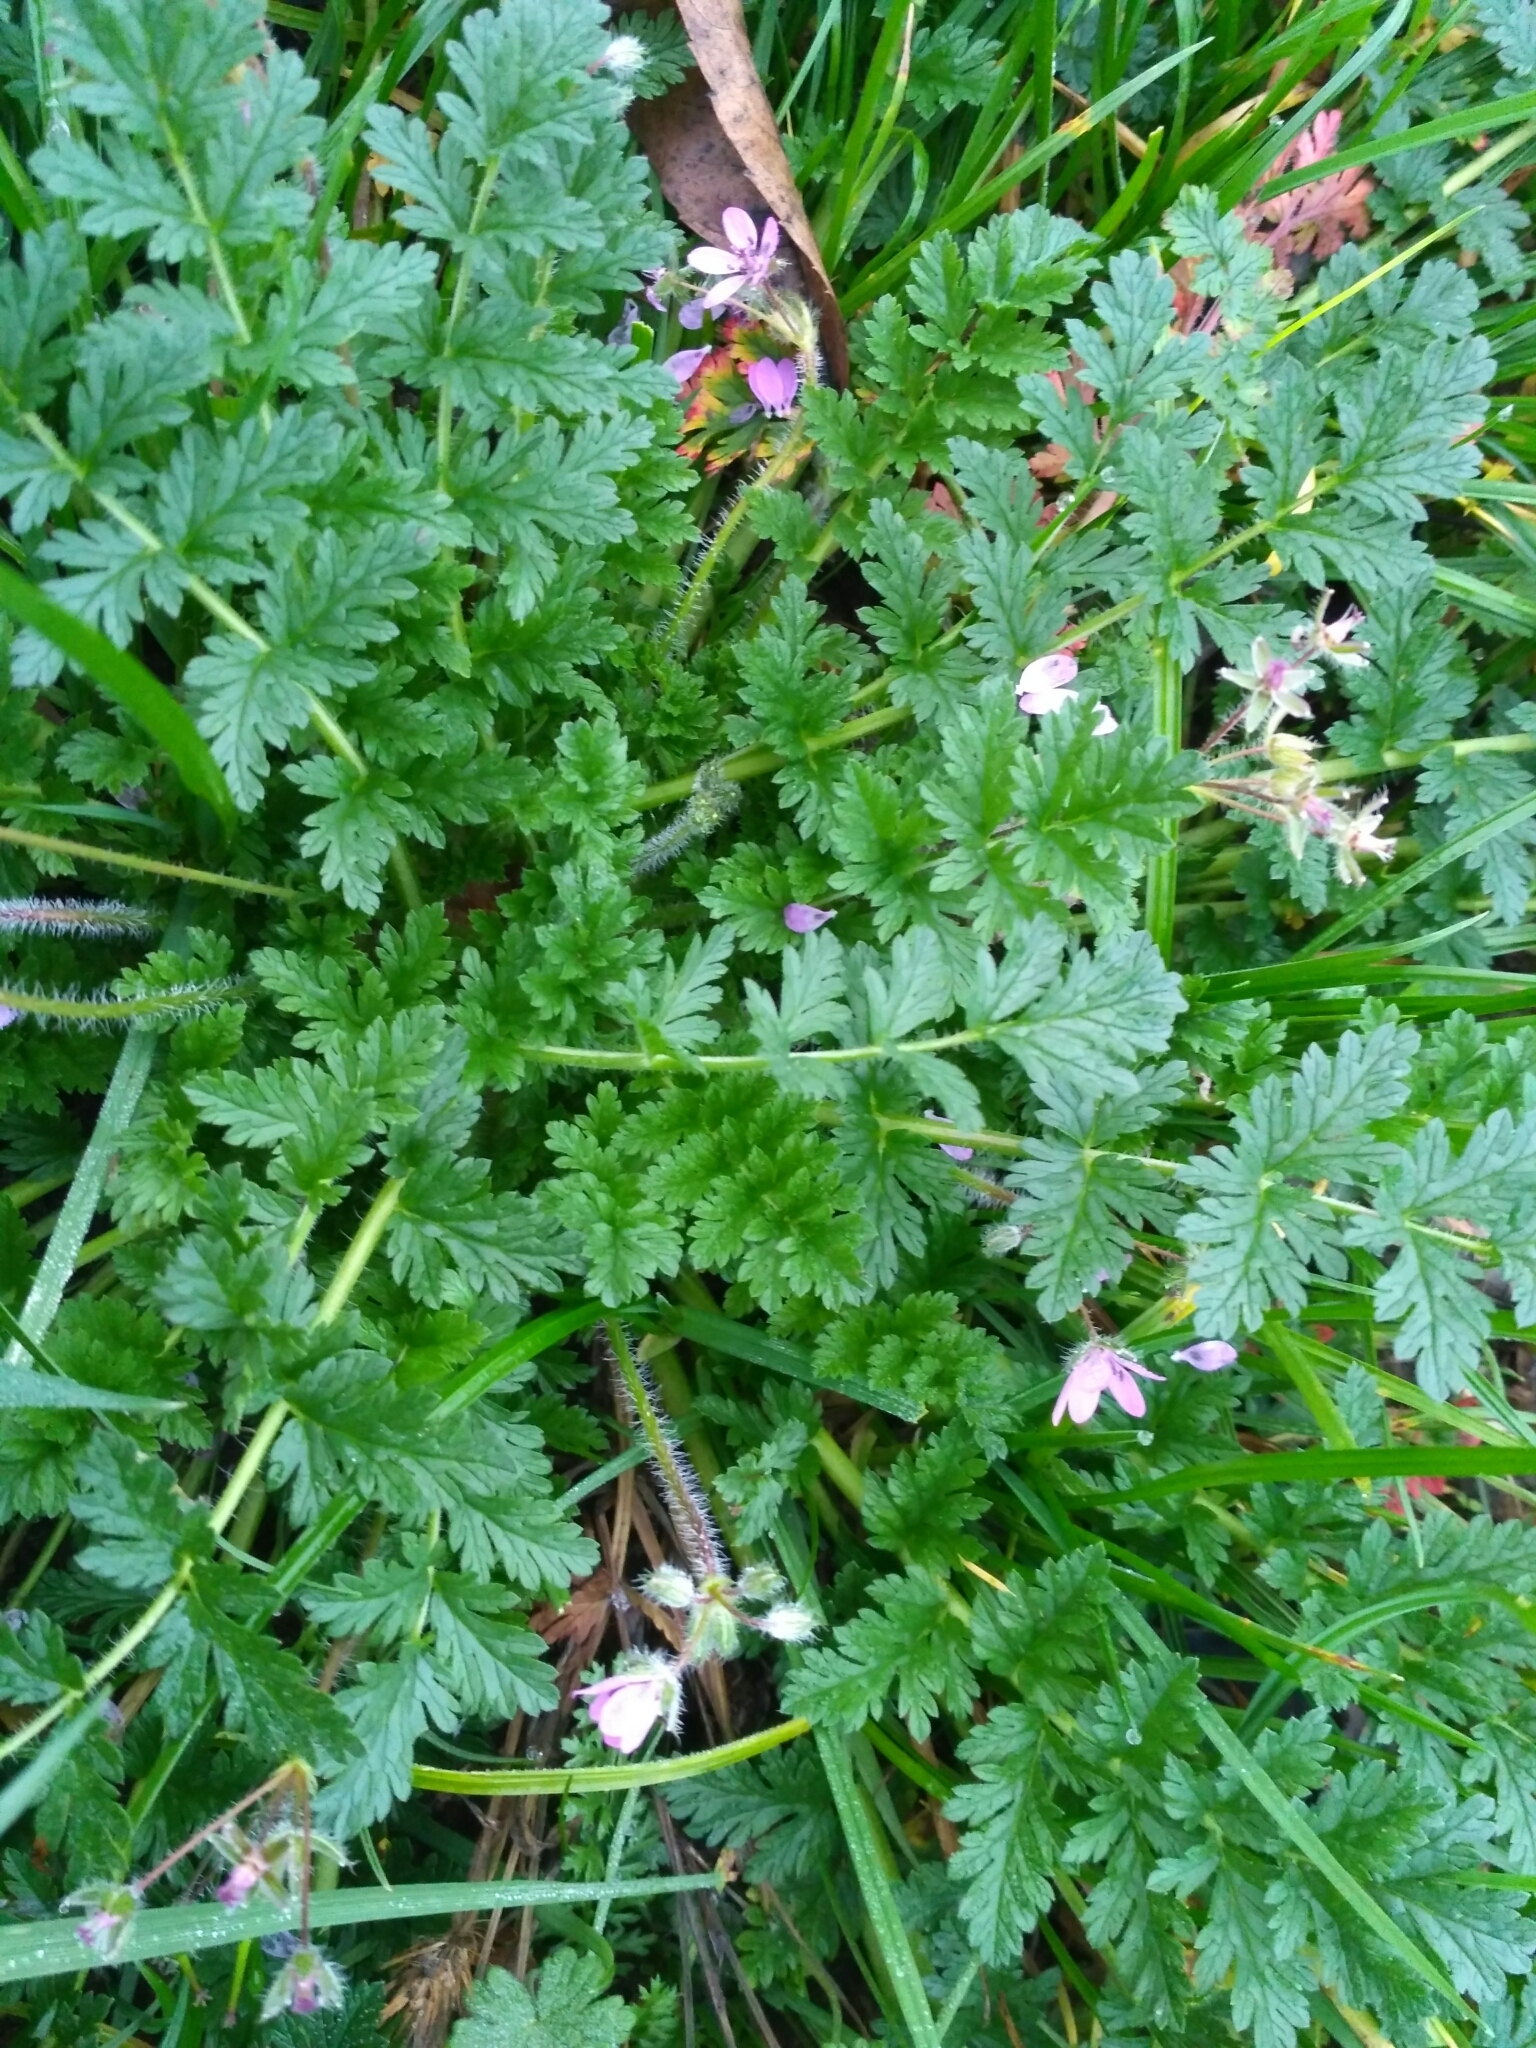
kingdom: Plantae
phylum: Tracheophyta
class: Magnoliopsida
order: Geraniales
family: Geraniaceae
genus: Erodium
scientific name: Erodium cicutarium
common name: Common stork's-bill
